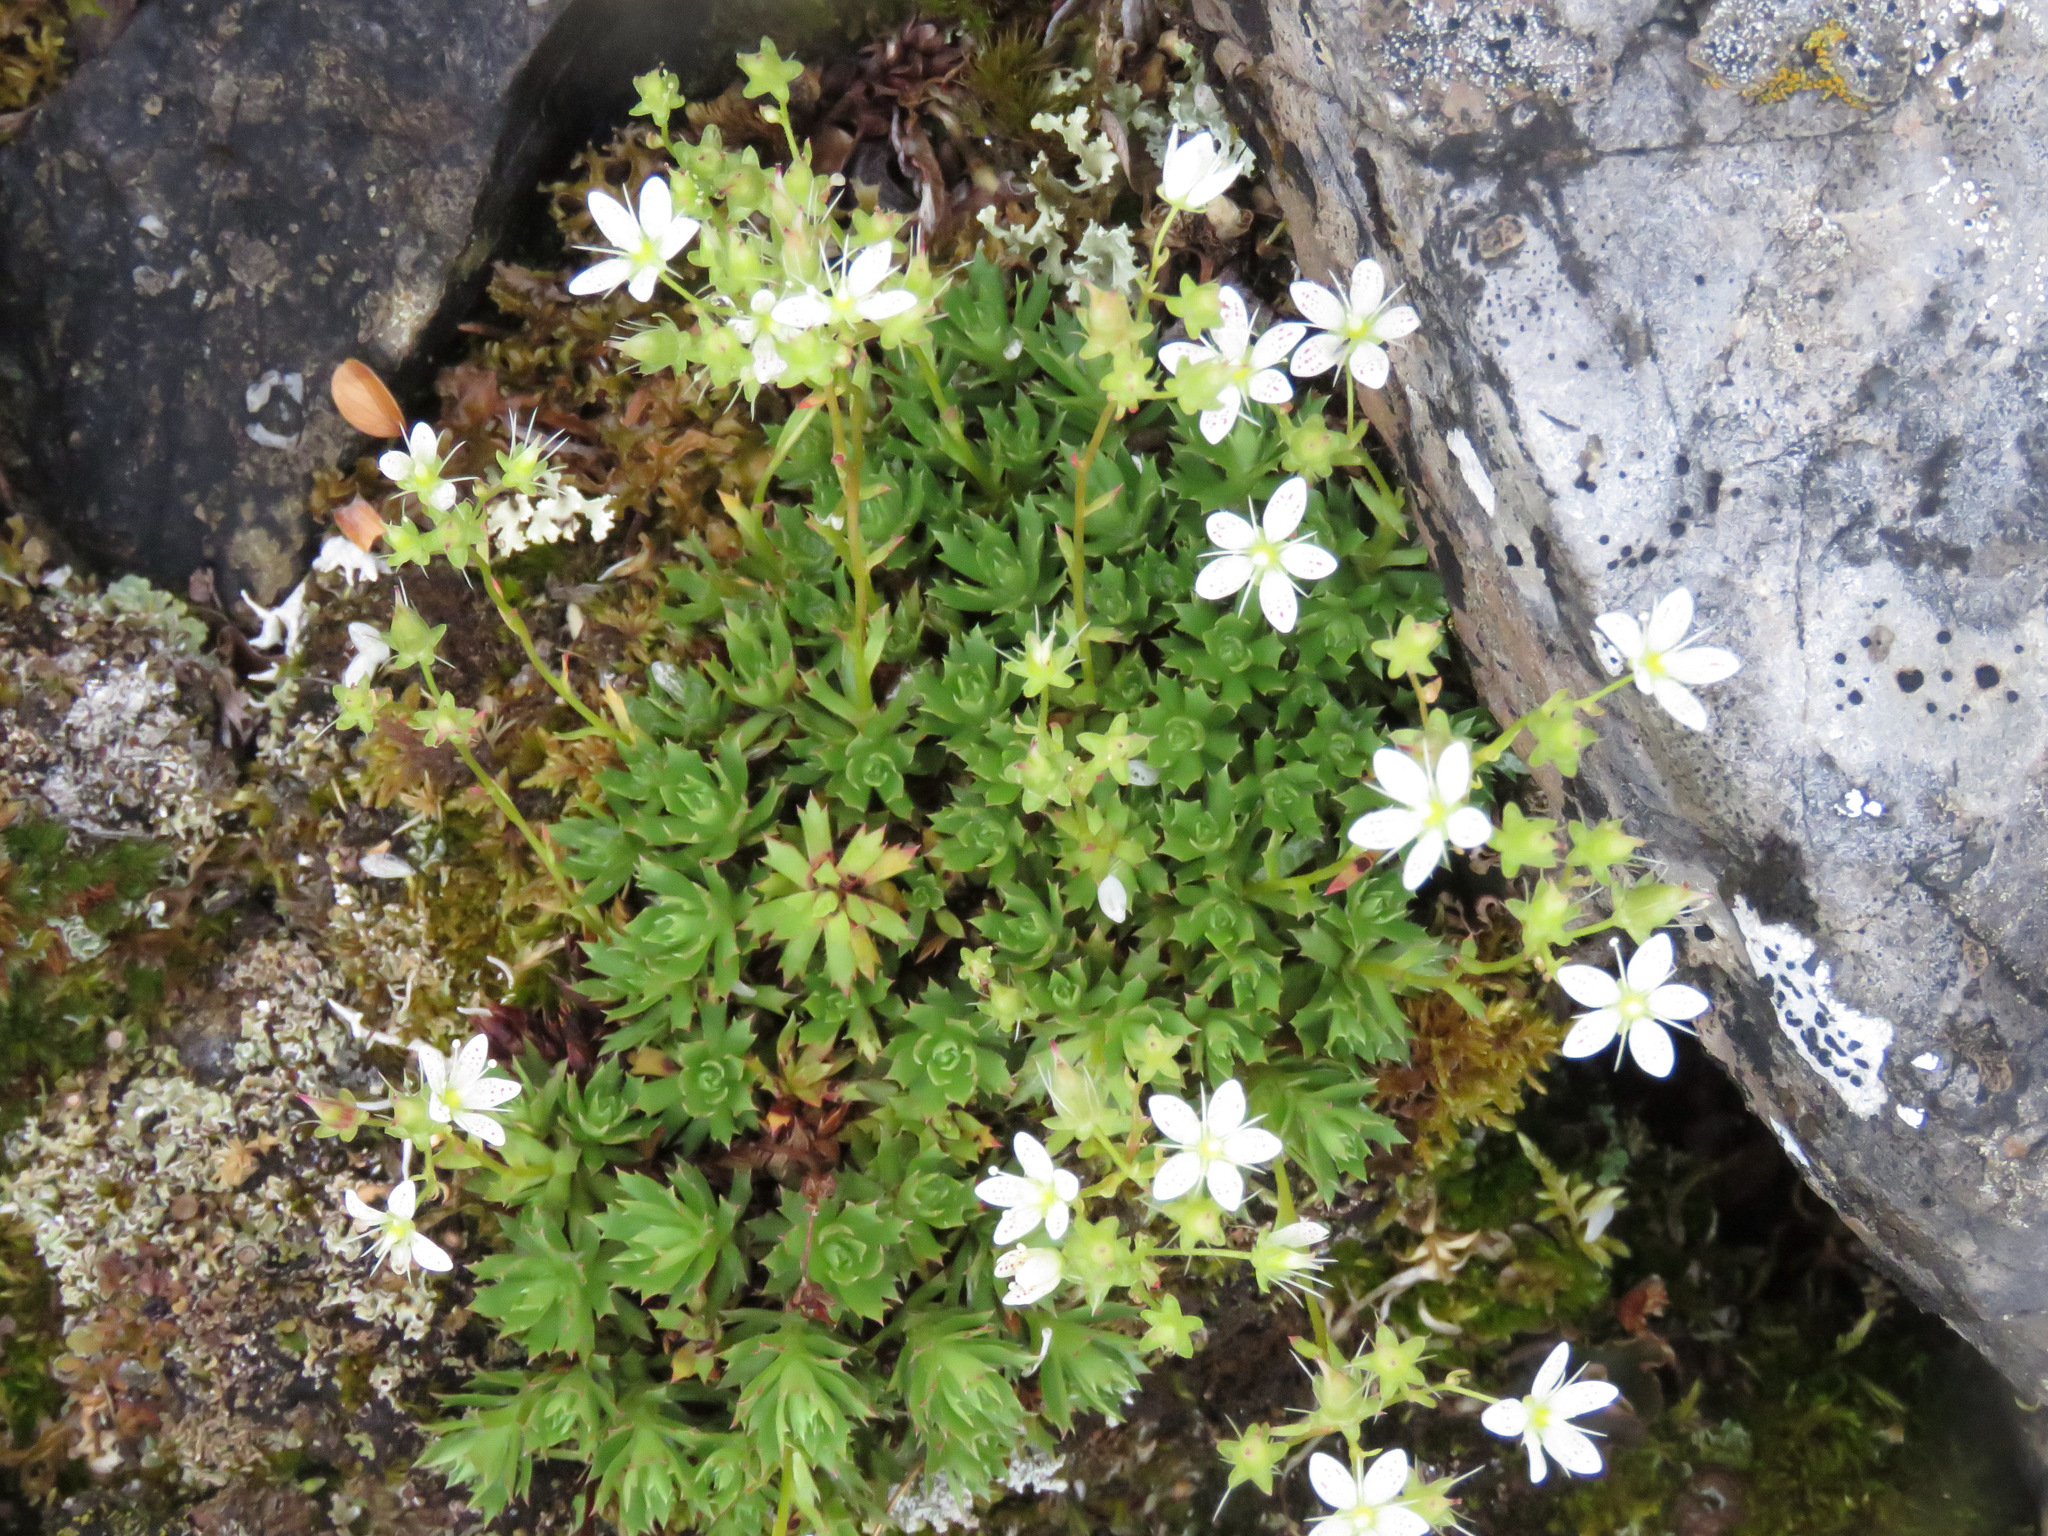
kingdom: Plantae
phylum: Tracheophyta
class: Magnoliopsida
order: Saxifragales
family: Saxifragaceae
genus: Saxifraga
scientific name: Saxifraga tricuspidata
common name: Prickly saxifrage
